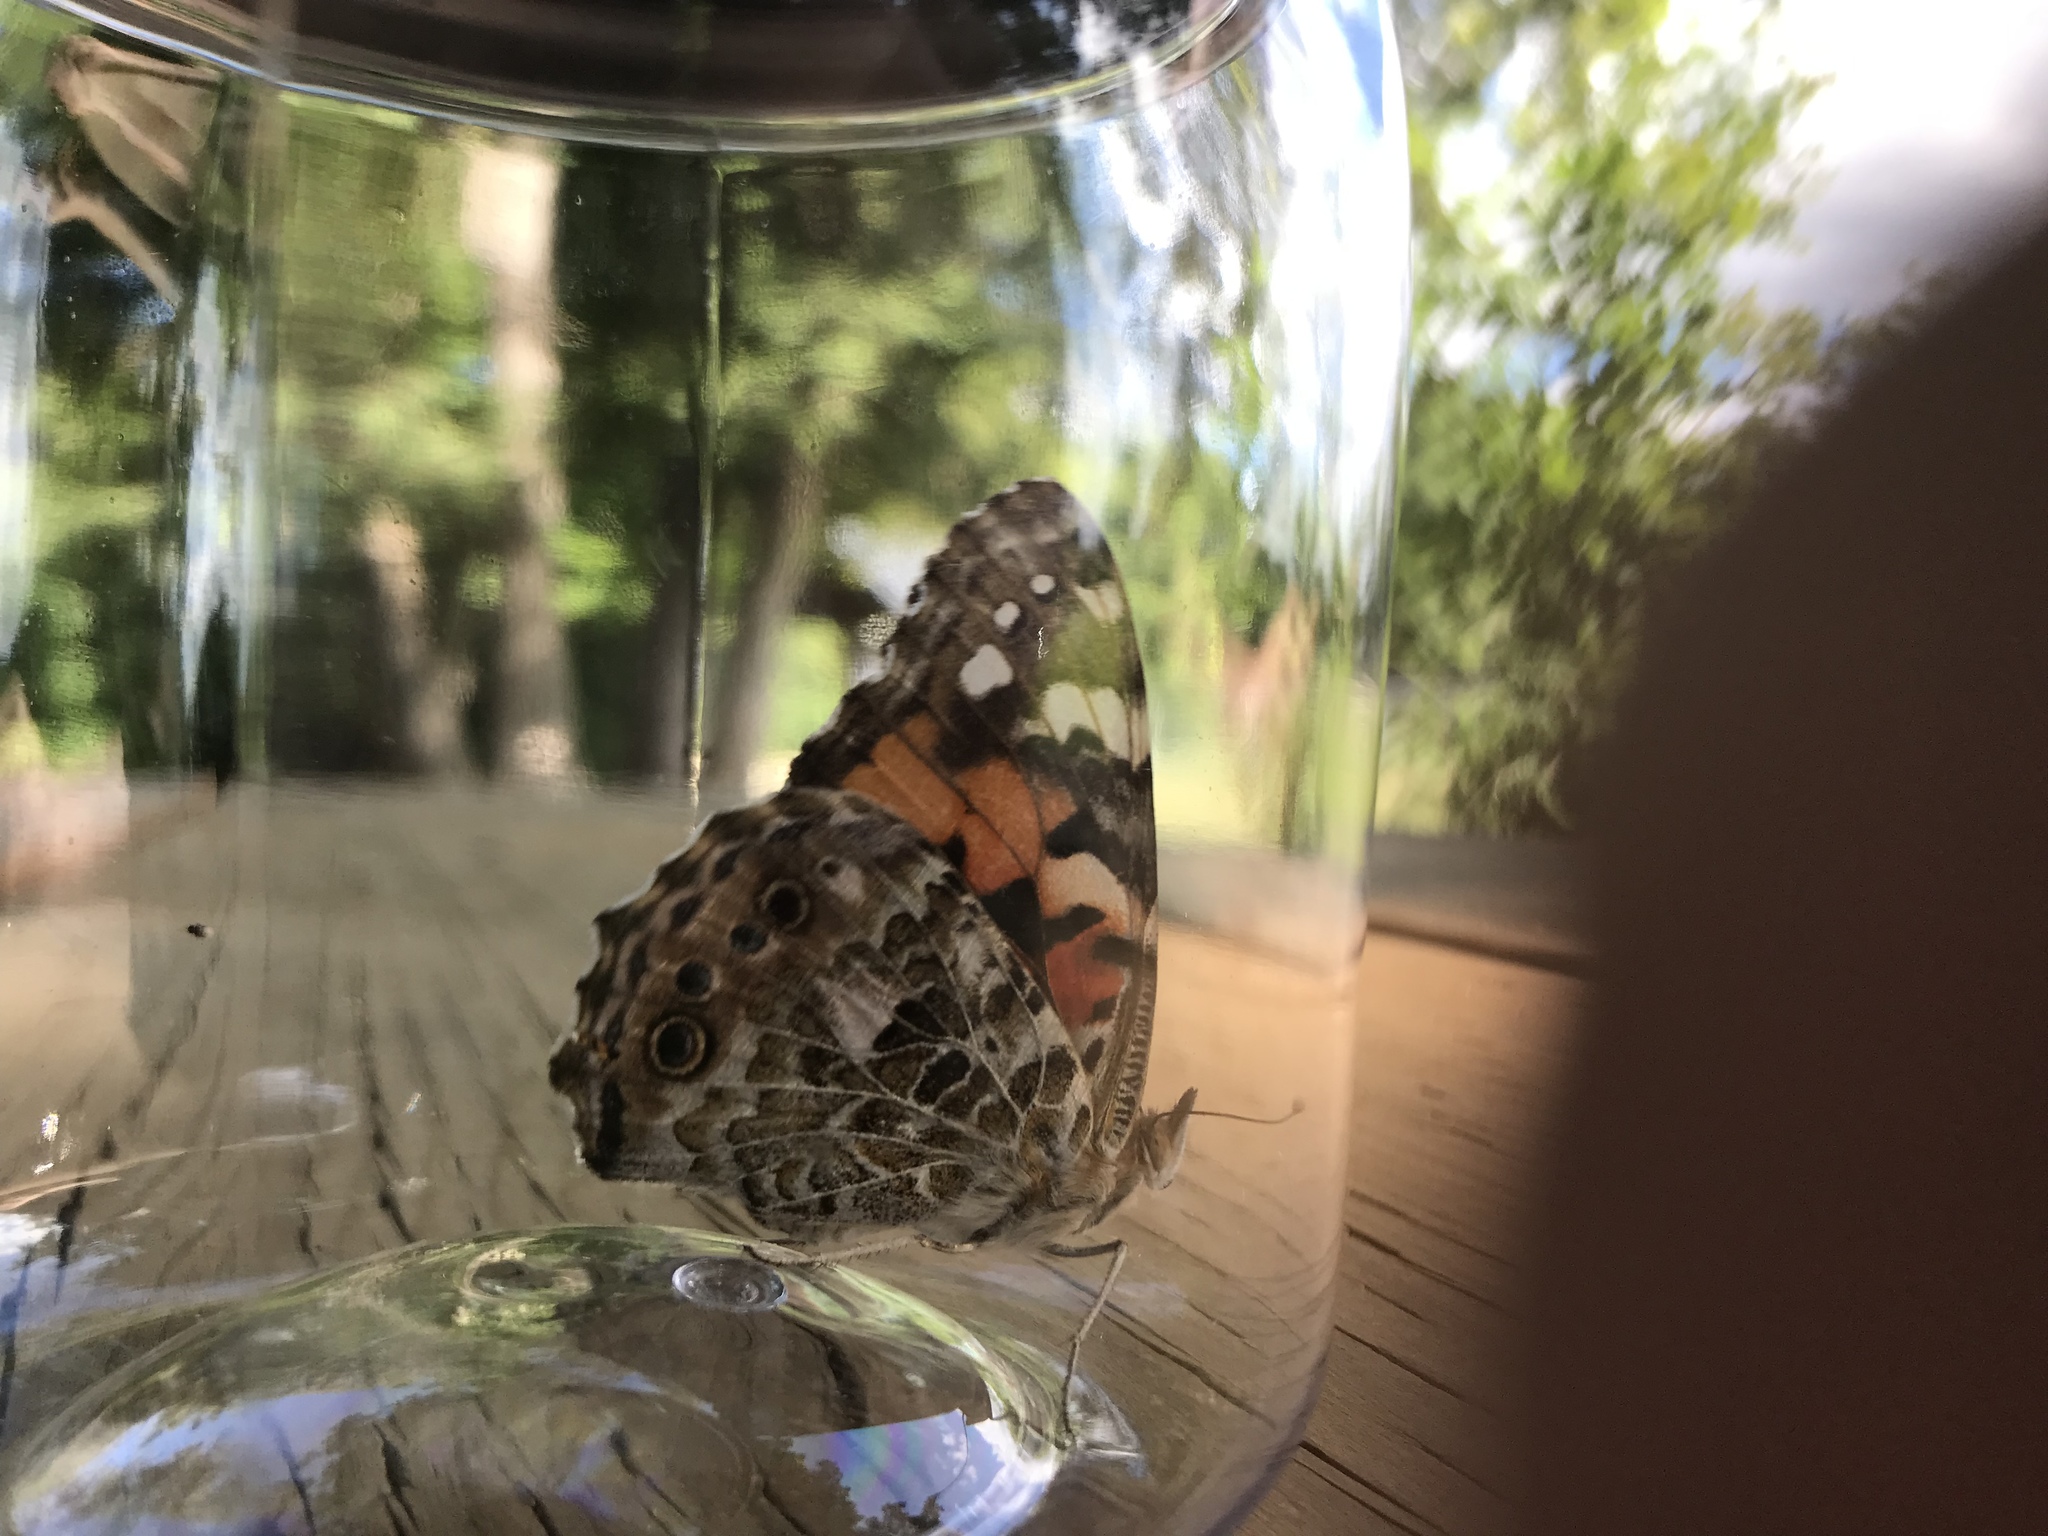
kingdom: Animalia
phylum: Arthropoda
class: Insecta
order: Lepidoptera
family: Nymphalidae
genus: Vanessa
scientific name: Vanessa cardui
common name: Painted lady
